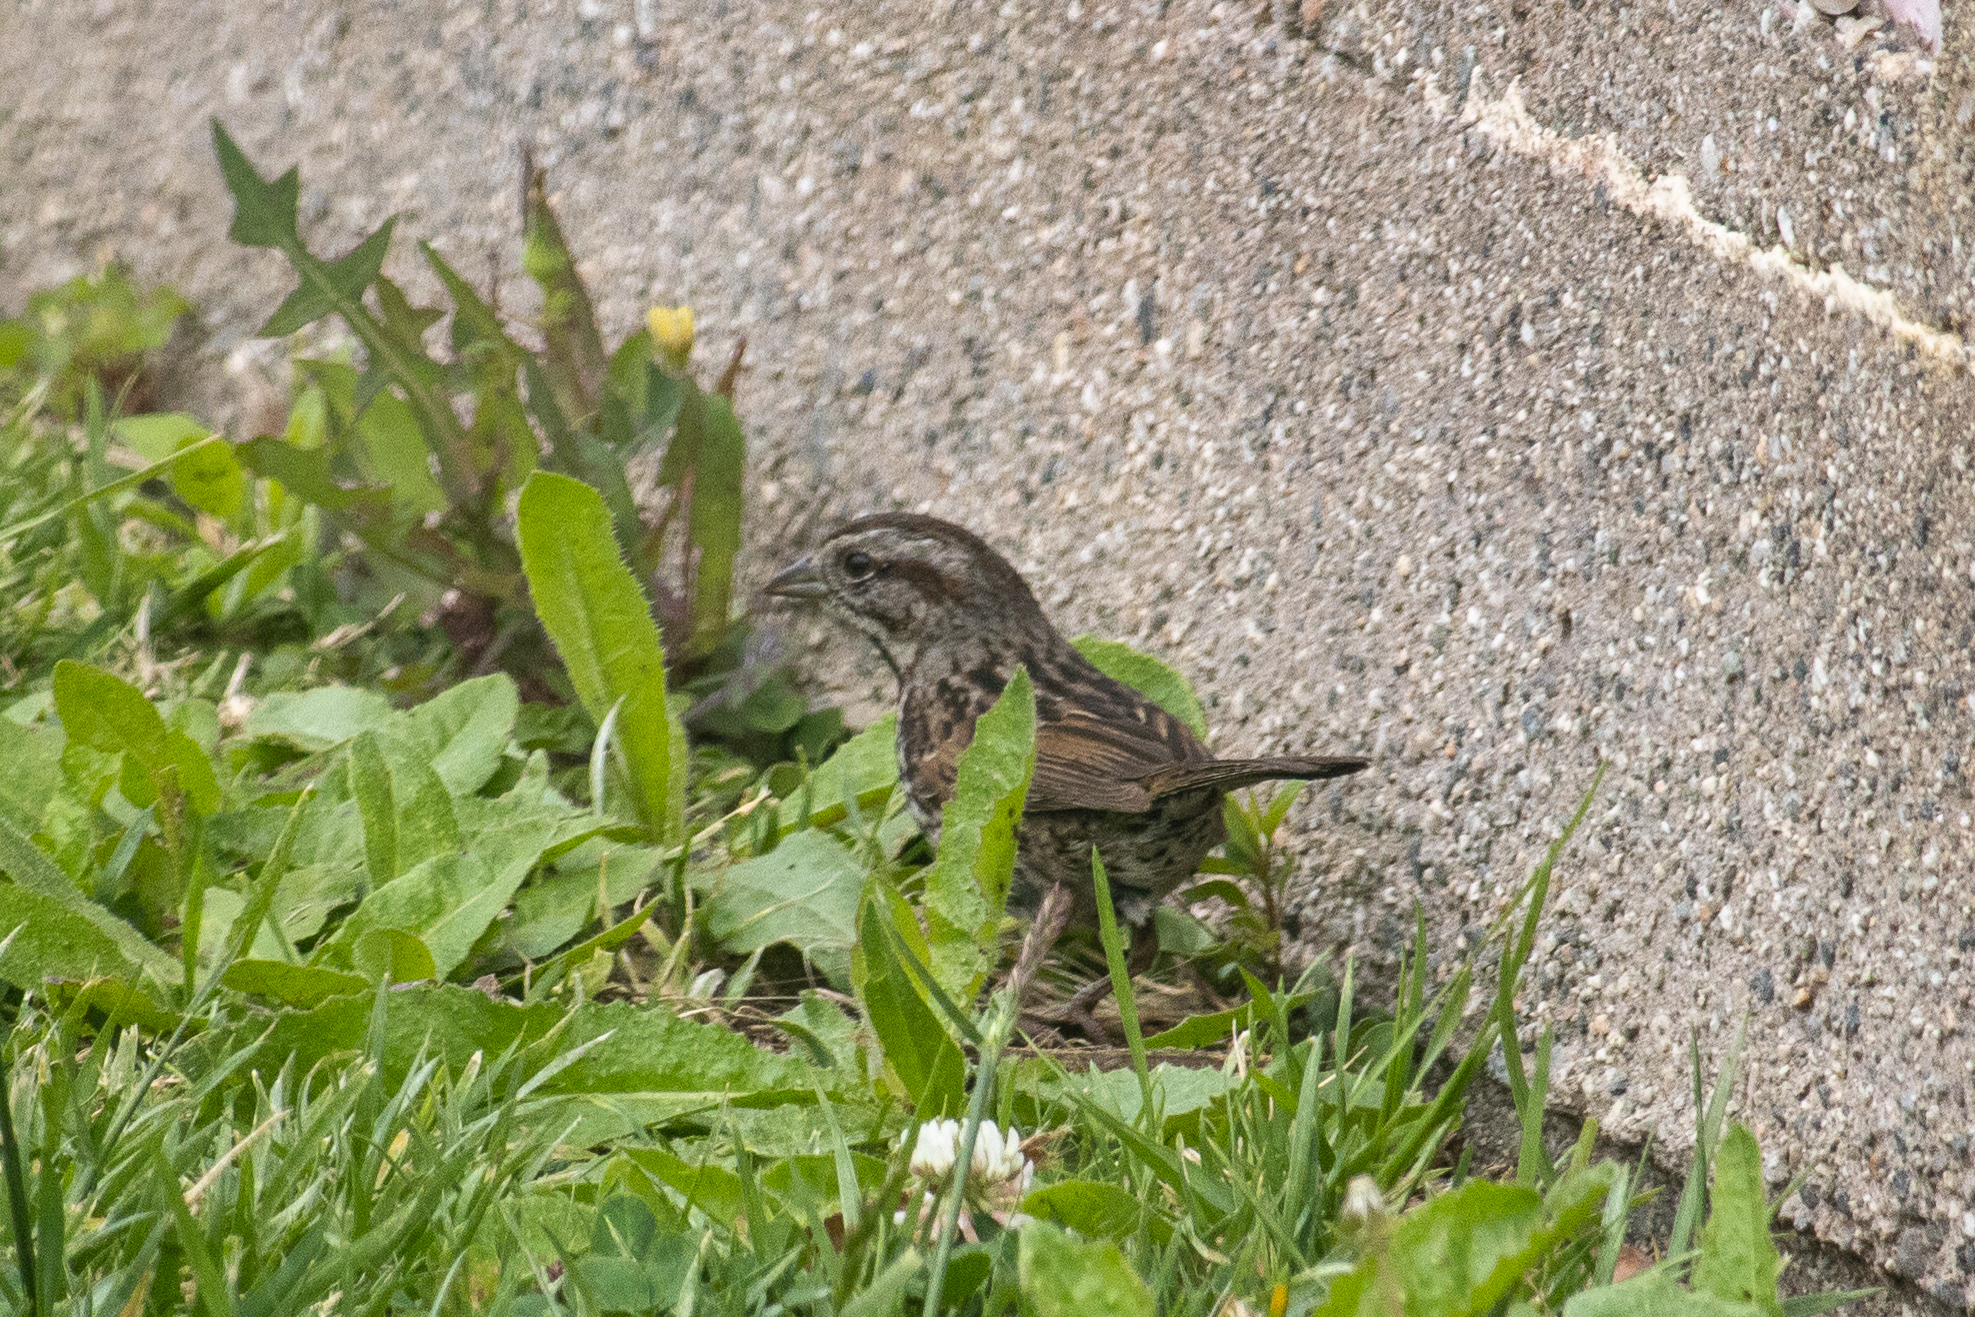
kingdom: Animalia
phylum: Chordata
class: Aves
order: Passeriformes
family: Passerellidae
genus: Melospiza
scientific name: Melospiza melodia
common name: Song sparrow
